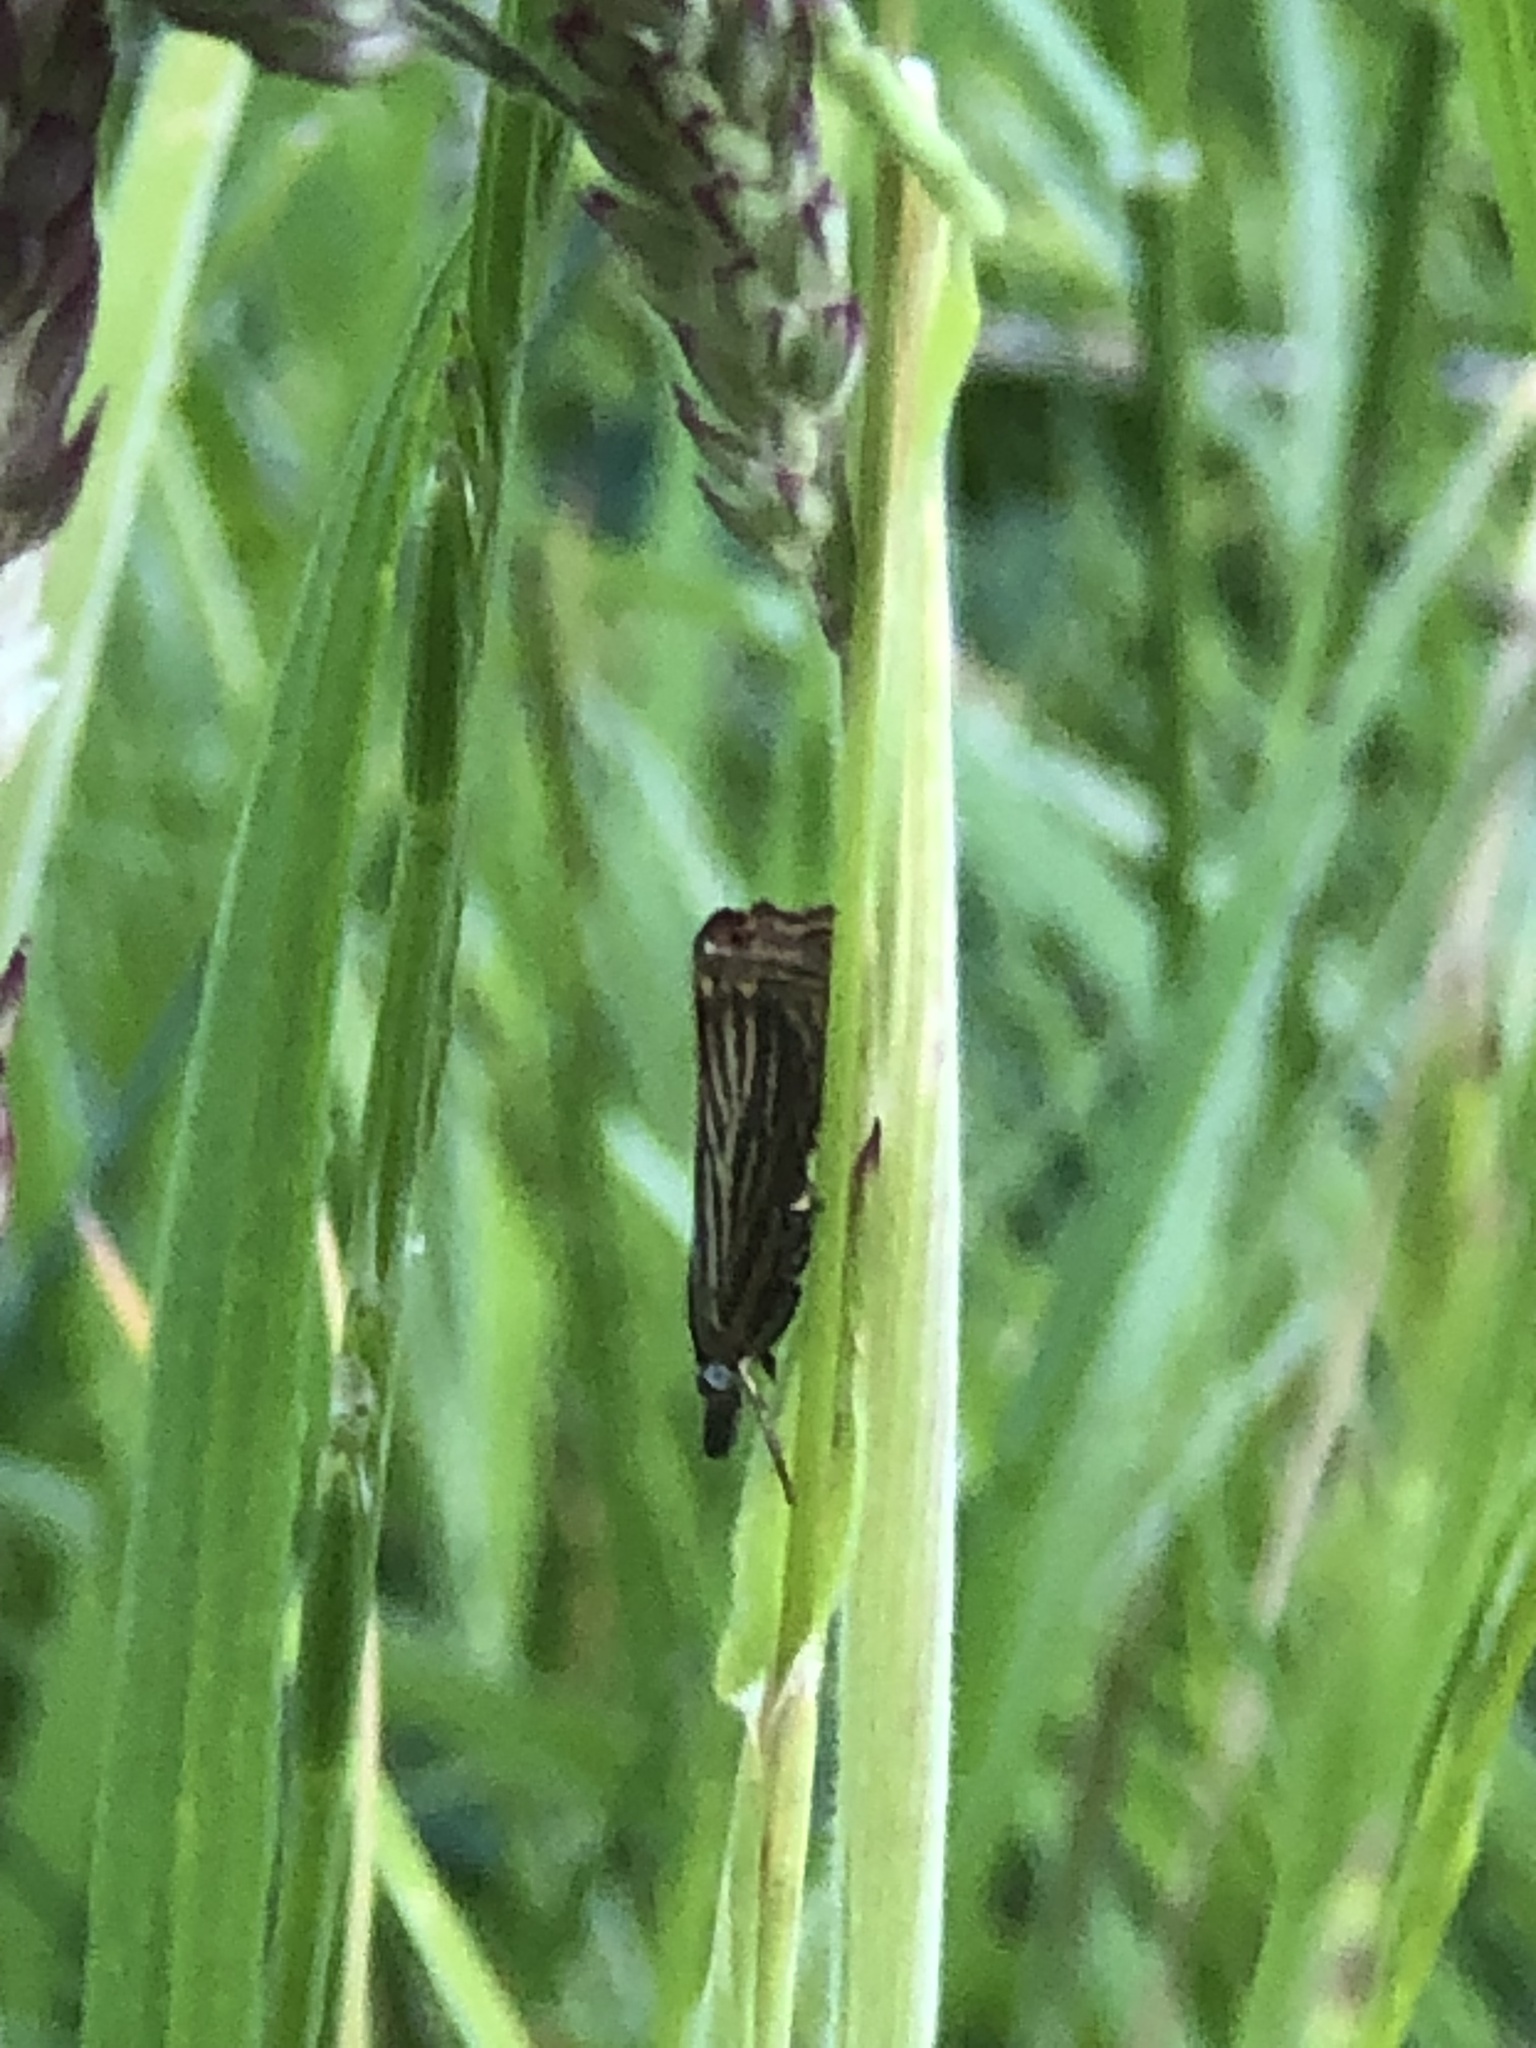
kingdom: Animalia
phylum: Arthropoda
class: Insecta
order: Lepidoptera
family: Crambidae
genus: Chrysoteuchia
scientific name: Chrysoteuchia culmella
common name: Garden grass-veneer
